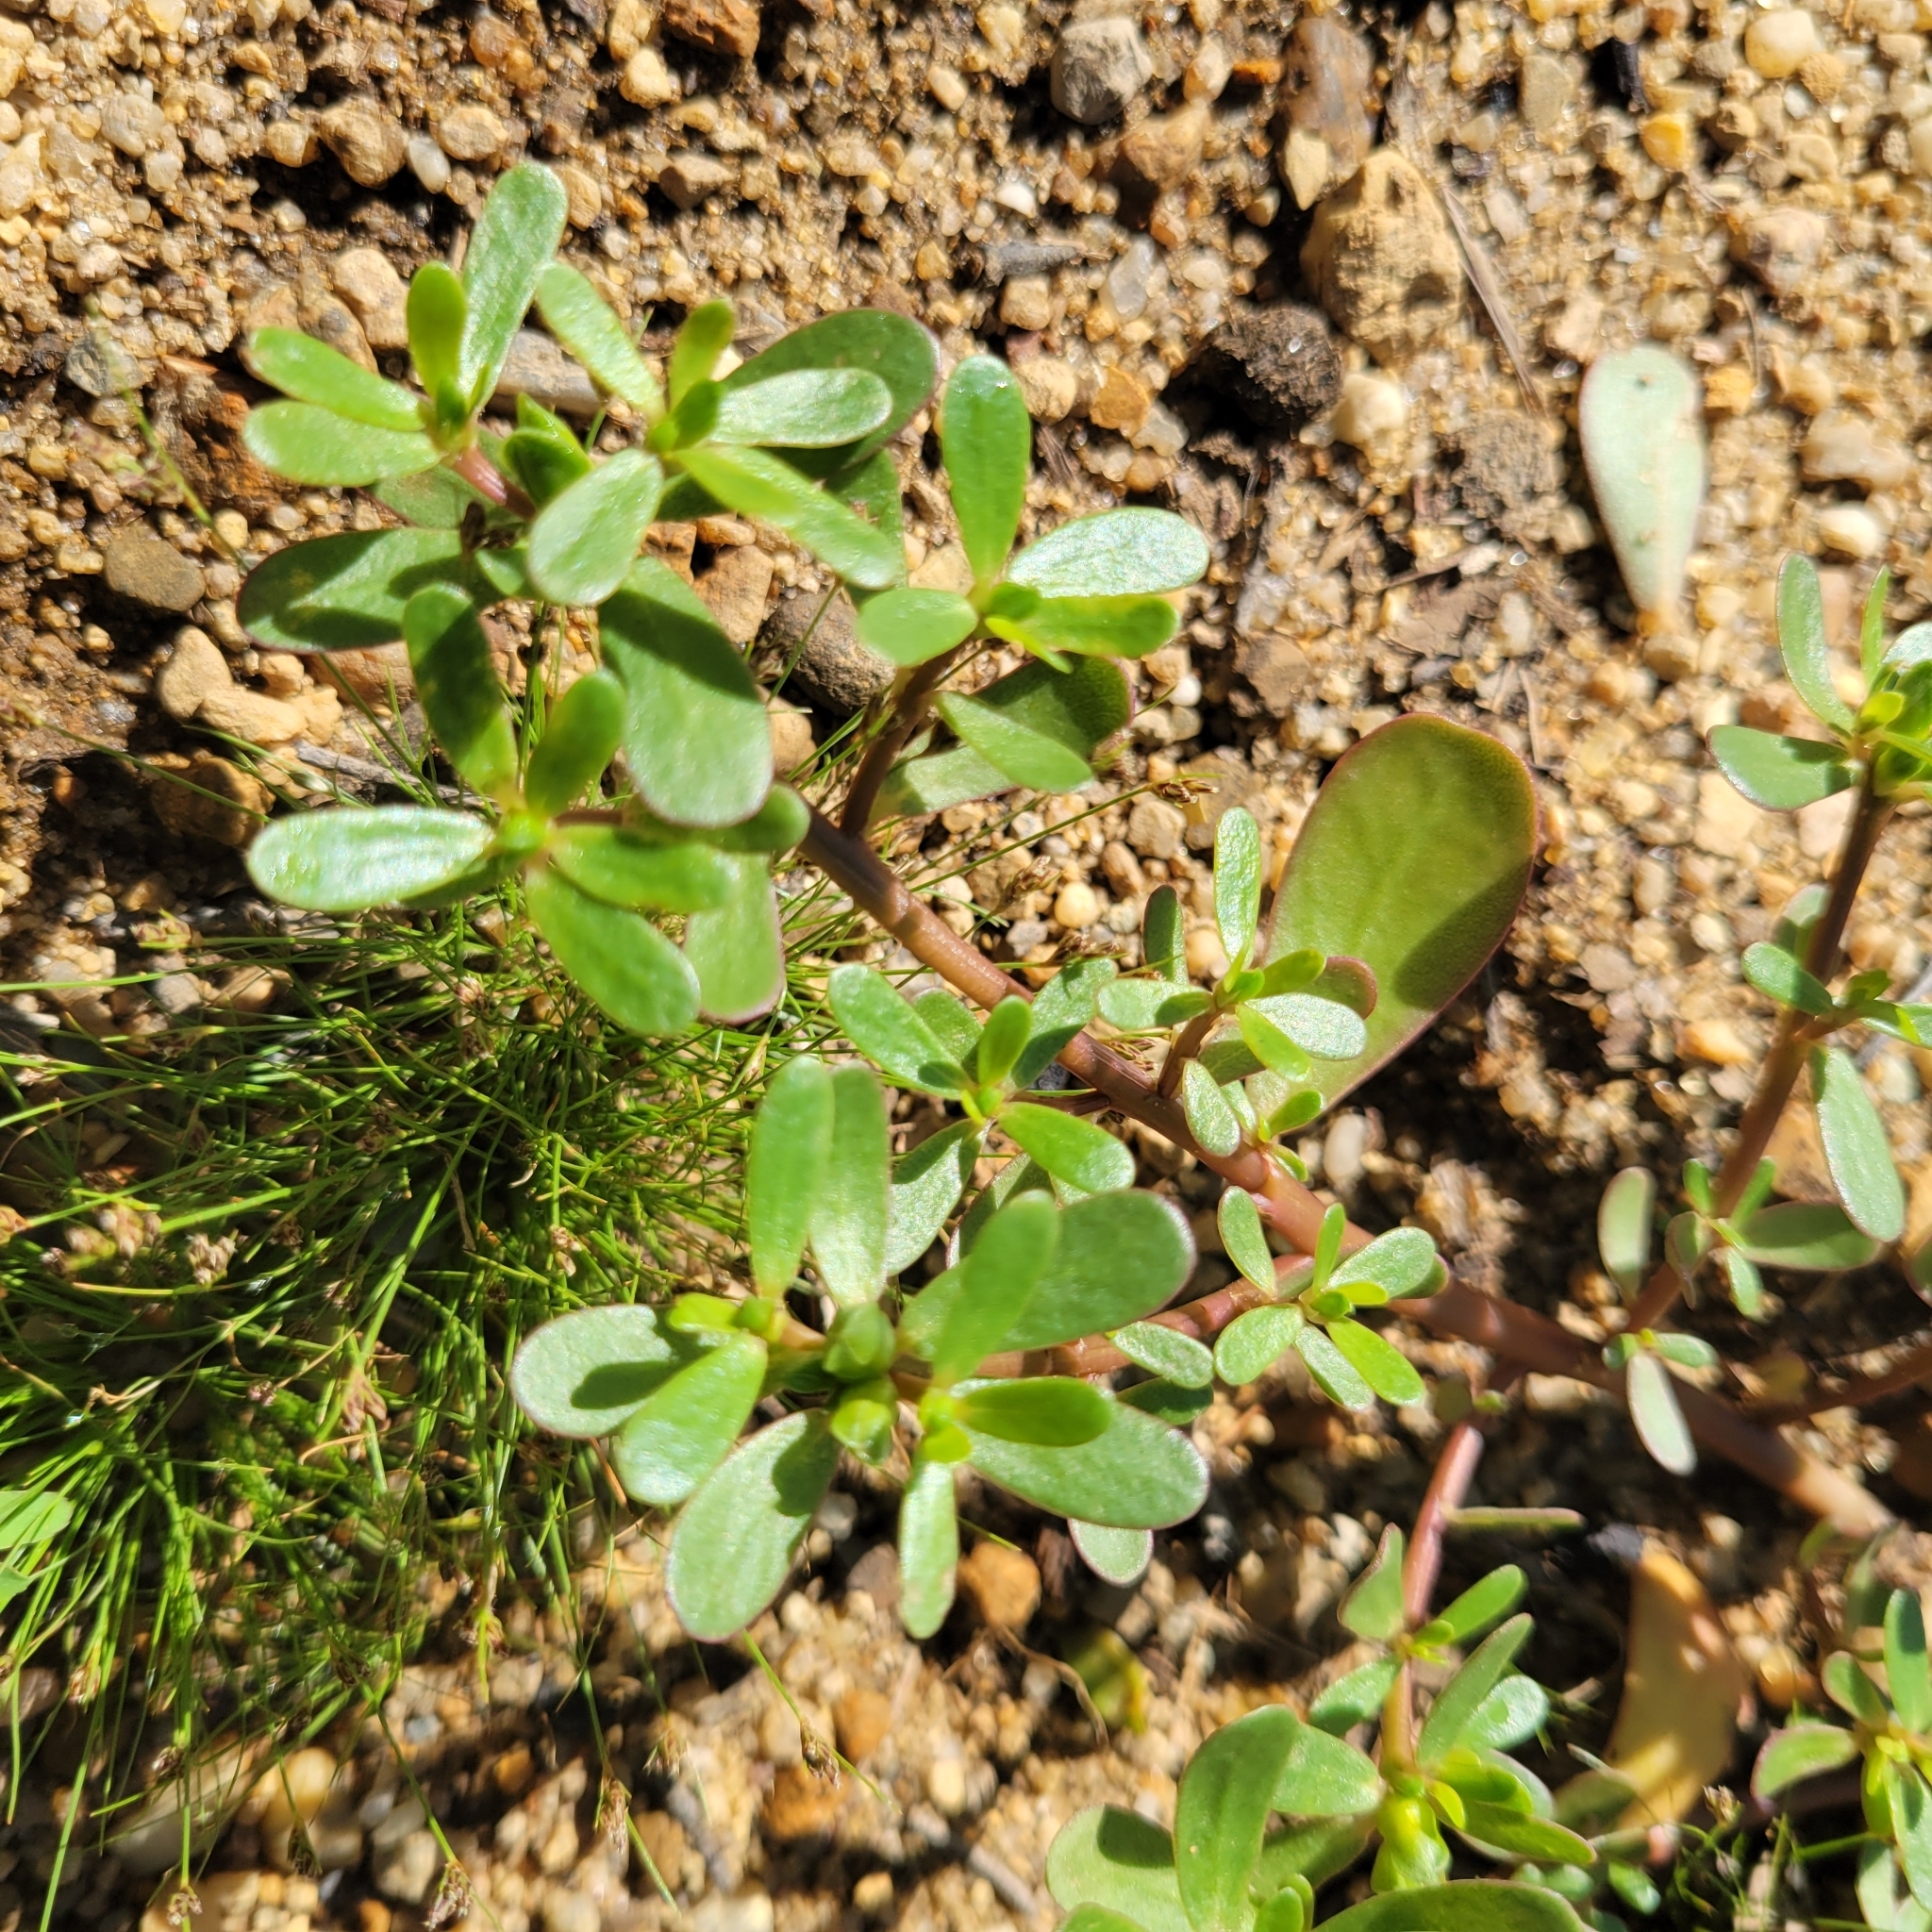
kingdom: Plantae
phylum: Tracheophyta
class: Magnoliopsida
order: Caryophyllales
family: Portulacaceae
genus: Portulaca
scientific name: Portulaca oleracea
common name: Common purslane
